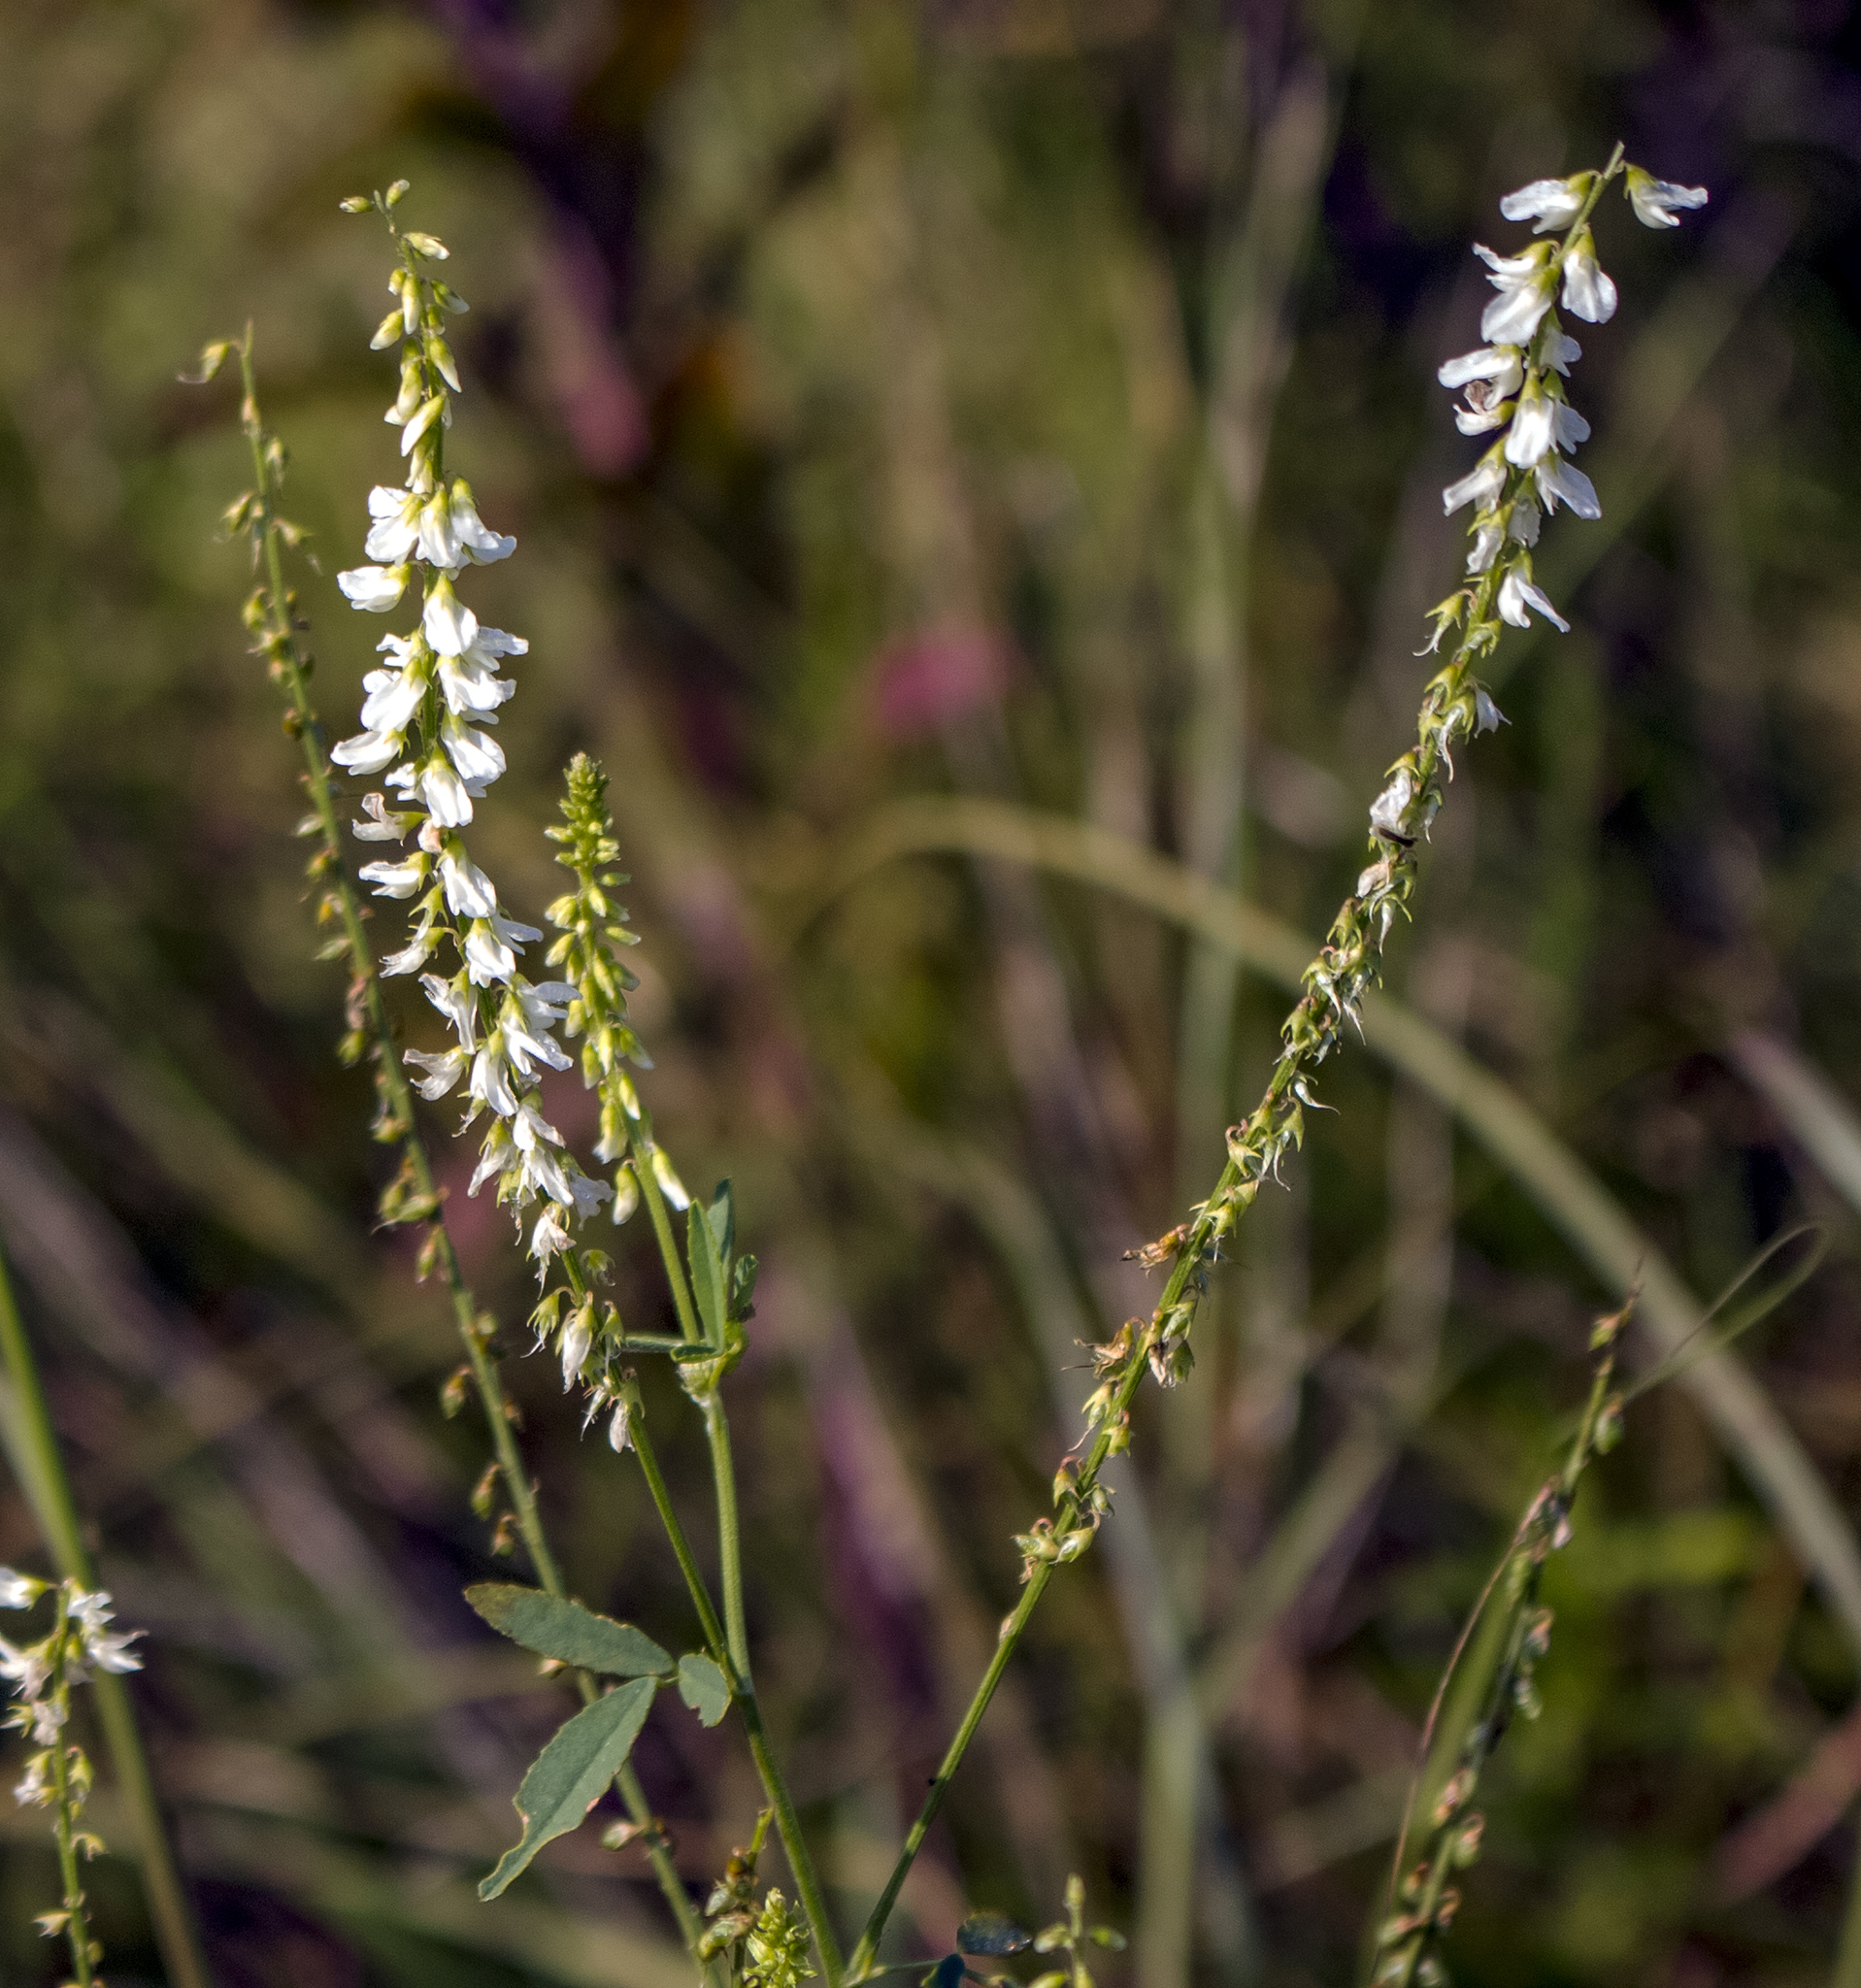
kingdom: Plantae
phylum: Tracheophyta
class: Magnoliopsida
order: Fabales
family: Fabaceae
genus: Melilotus
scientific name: Melilotus albus
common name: White melilot
